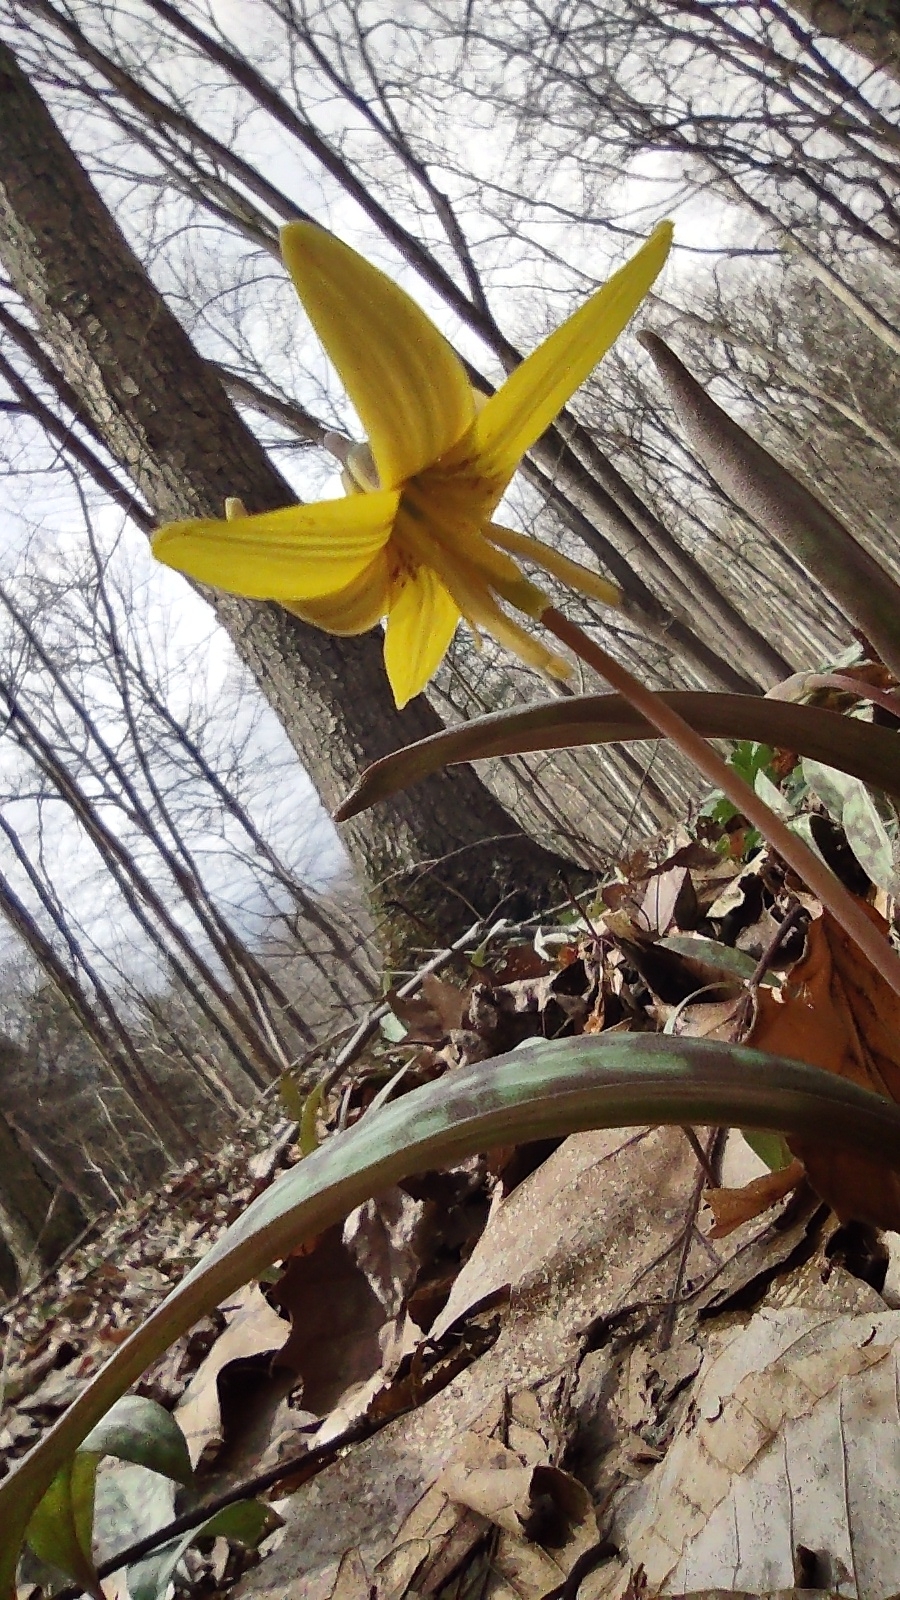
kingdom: Plantae
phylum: Tracheophyta
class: Liliopsida
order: Liliales
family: Liliaceae
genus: Erythronium
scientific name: Erythronium americanum
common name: Yellow adder's-tongue
